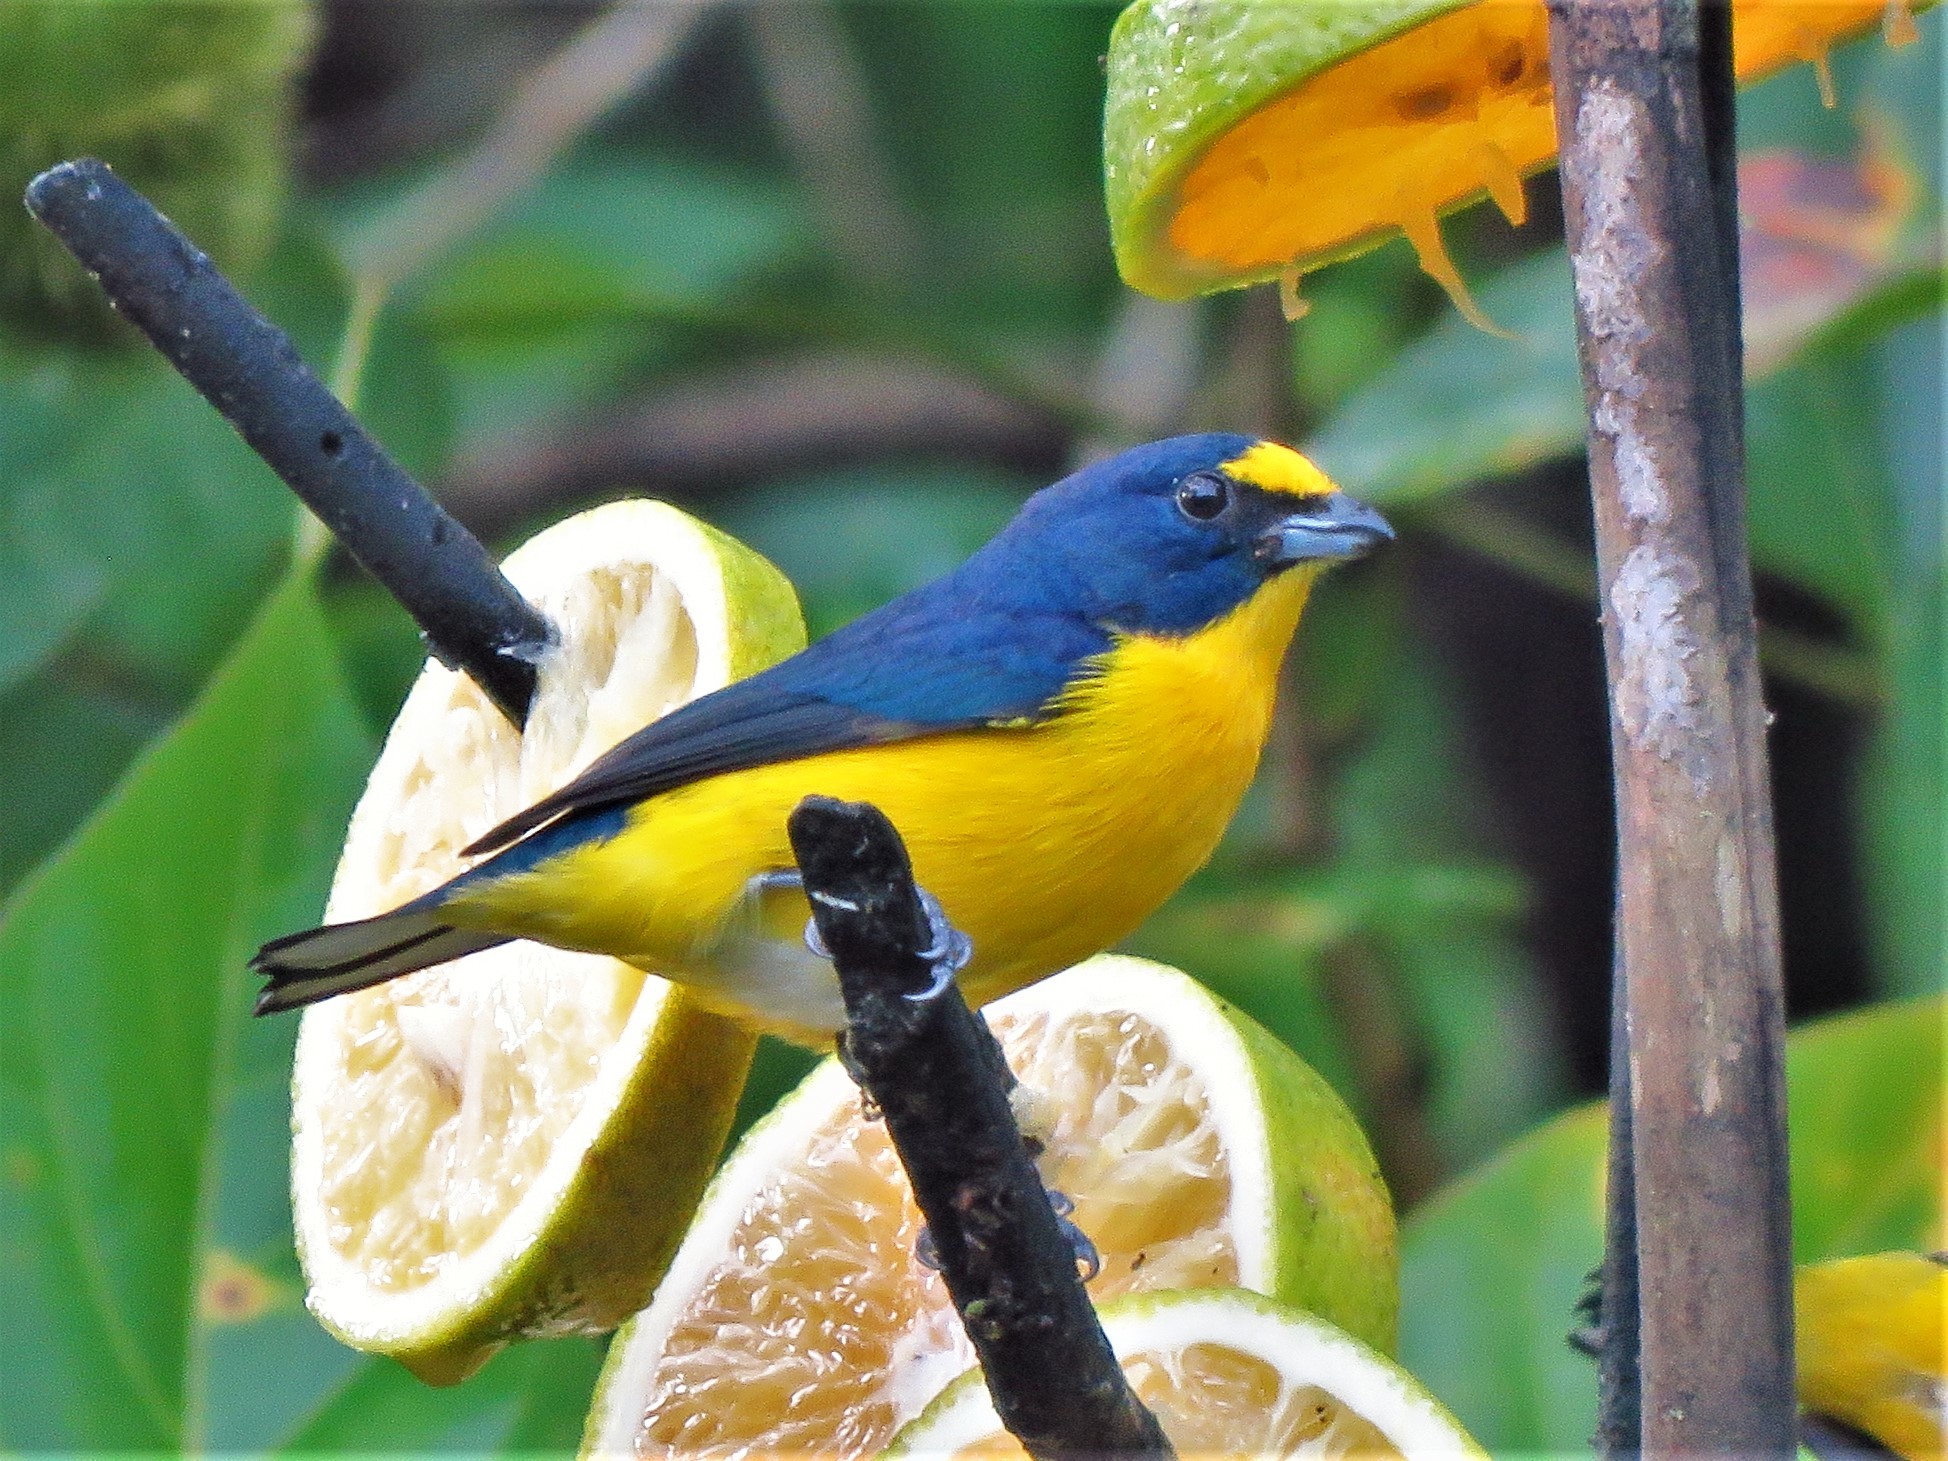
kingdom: Animalia
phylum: Chordata
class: Aves
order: Passeriformes
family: Fringillidae
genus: Euphonia
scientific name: Euphonia hirundinacea
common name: Yellow-throated euphonia
